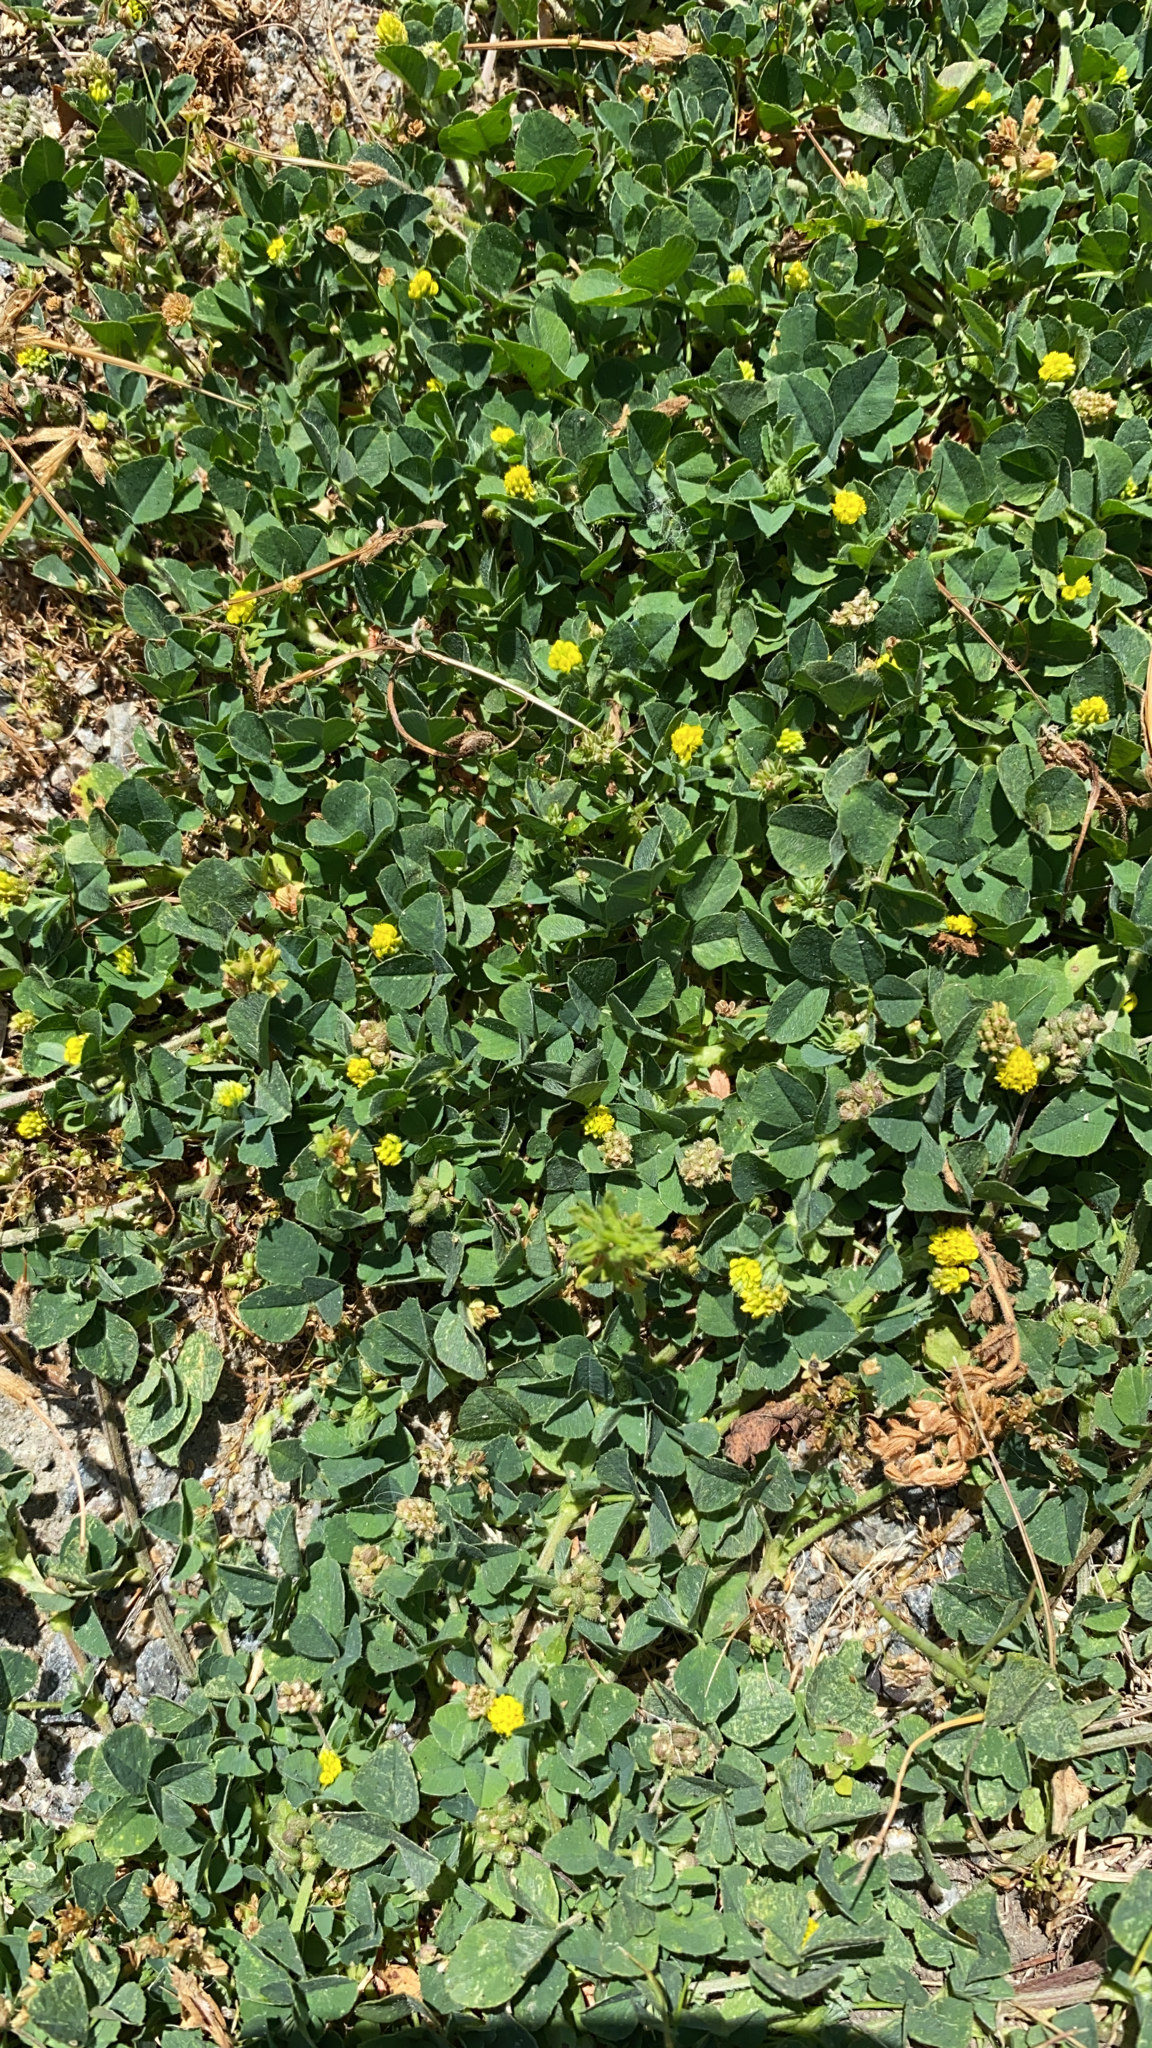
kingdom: Plantae
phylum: Tracheophyta
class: Magnoliopsida
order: Fabales
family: Fabaceae
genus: Medicago
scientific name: Medicago lupulina
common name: Black medick
